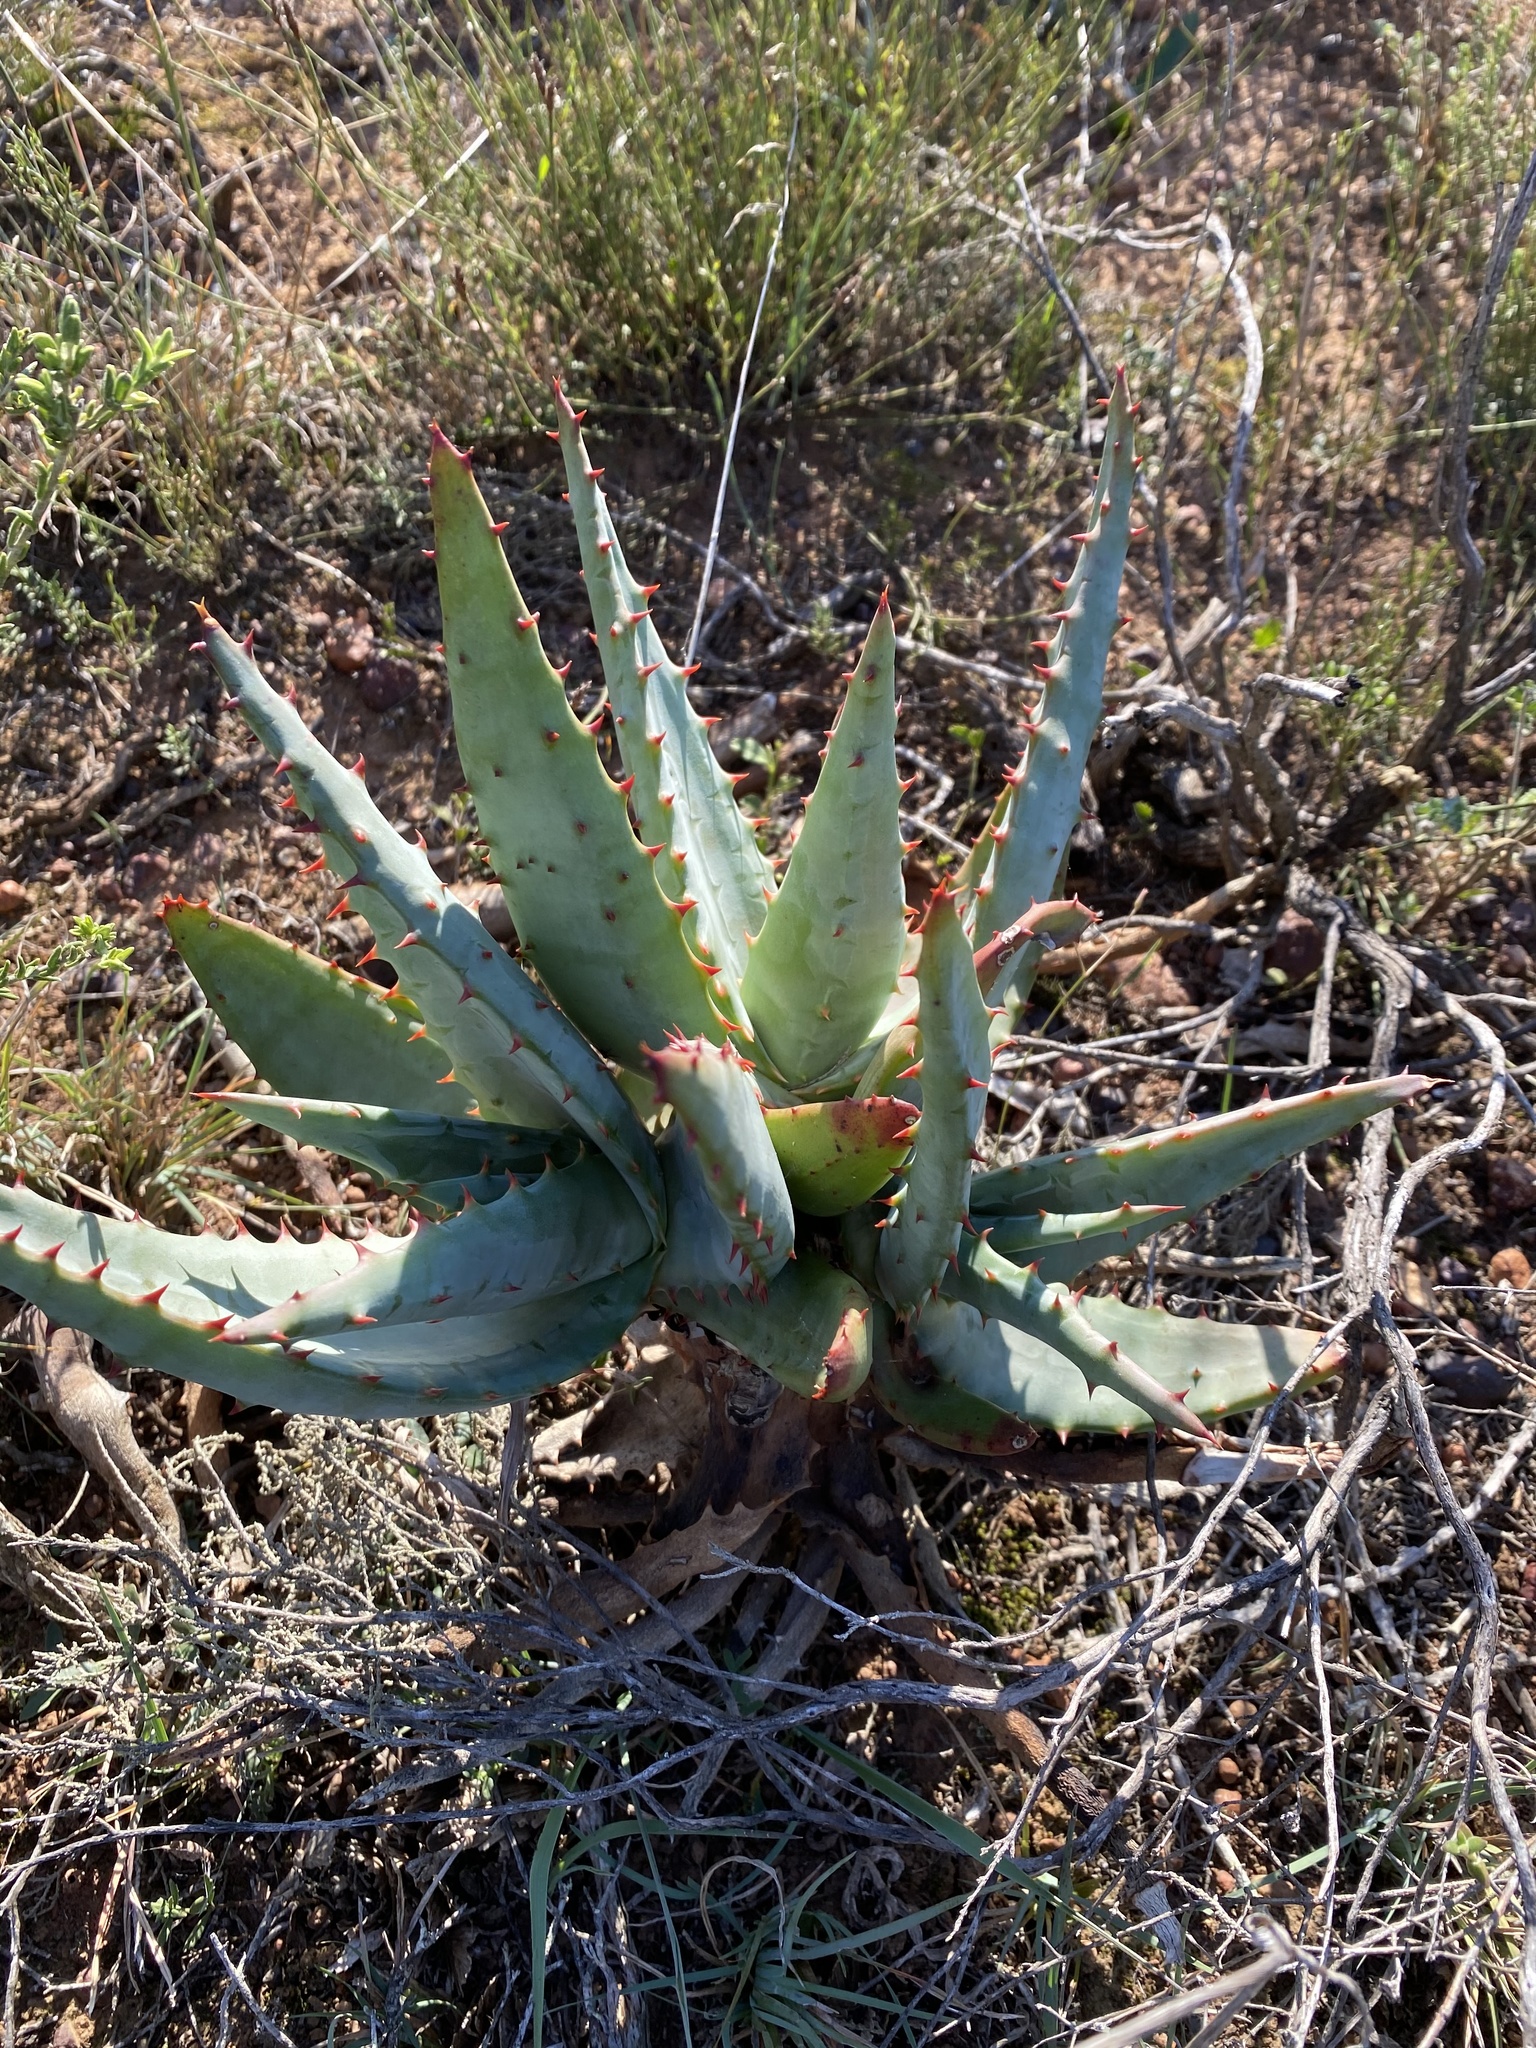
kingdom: Plantae
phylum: Tracheophyta
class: Liliopsida
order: Asparagales
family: Asphodelaceae
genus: Aloe
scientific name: Aloe ferox
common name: Bitter aloe
